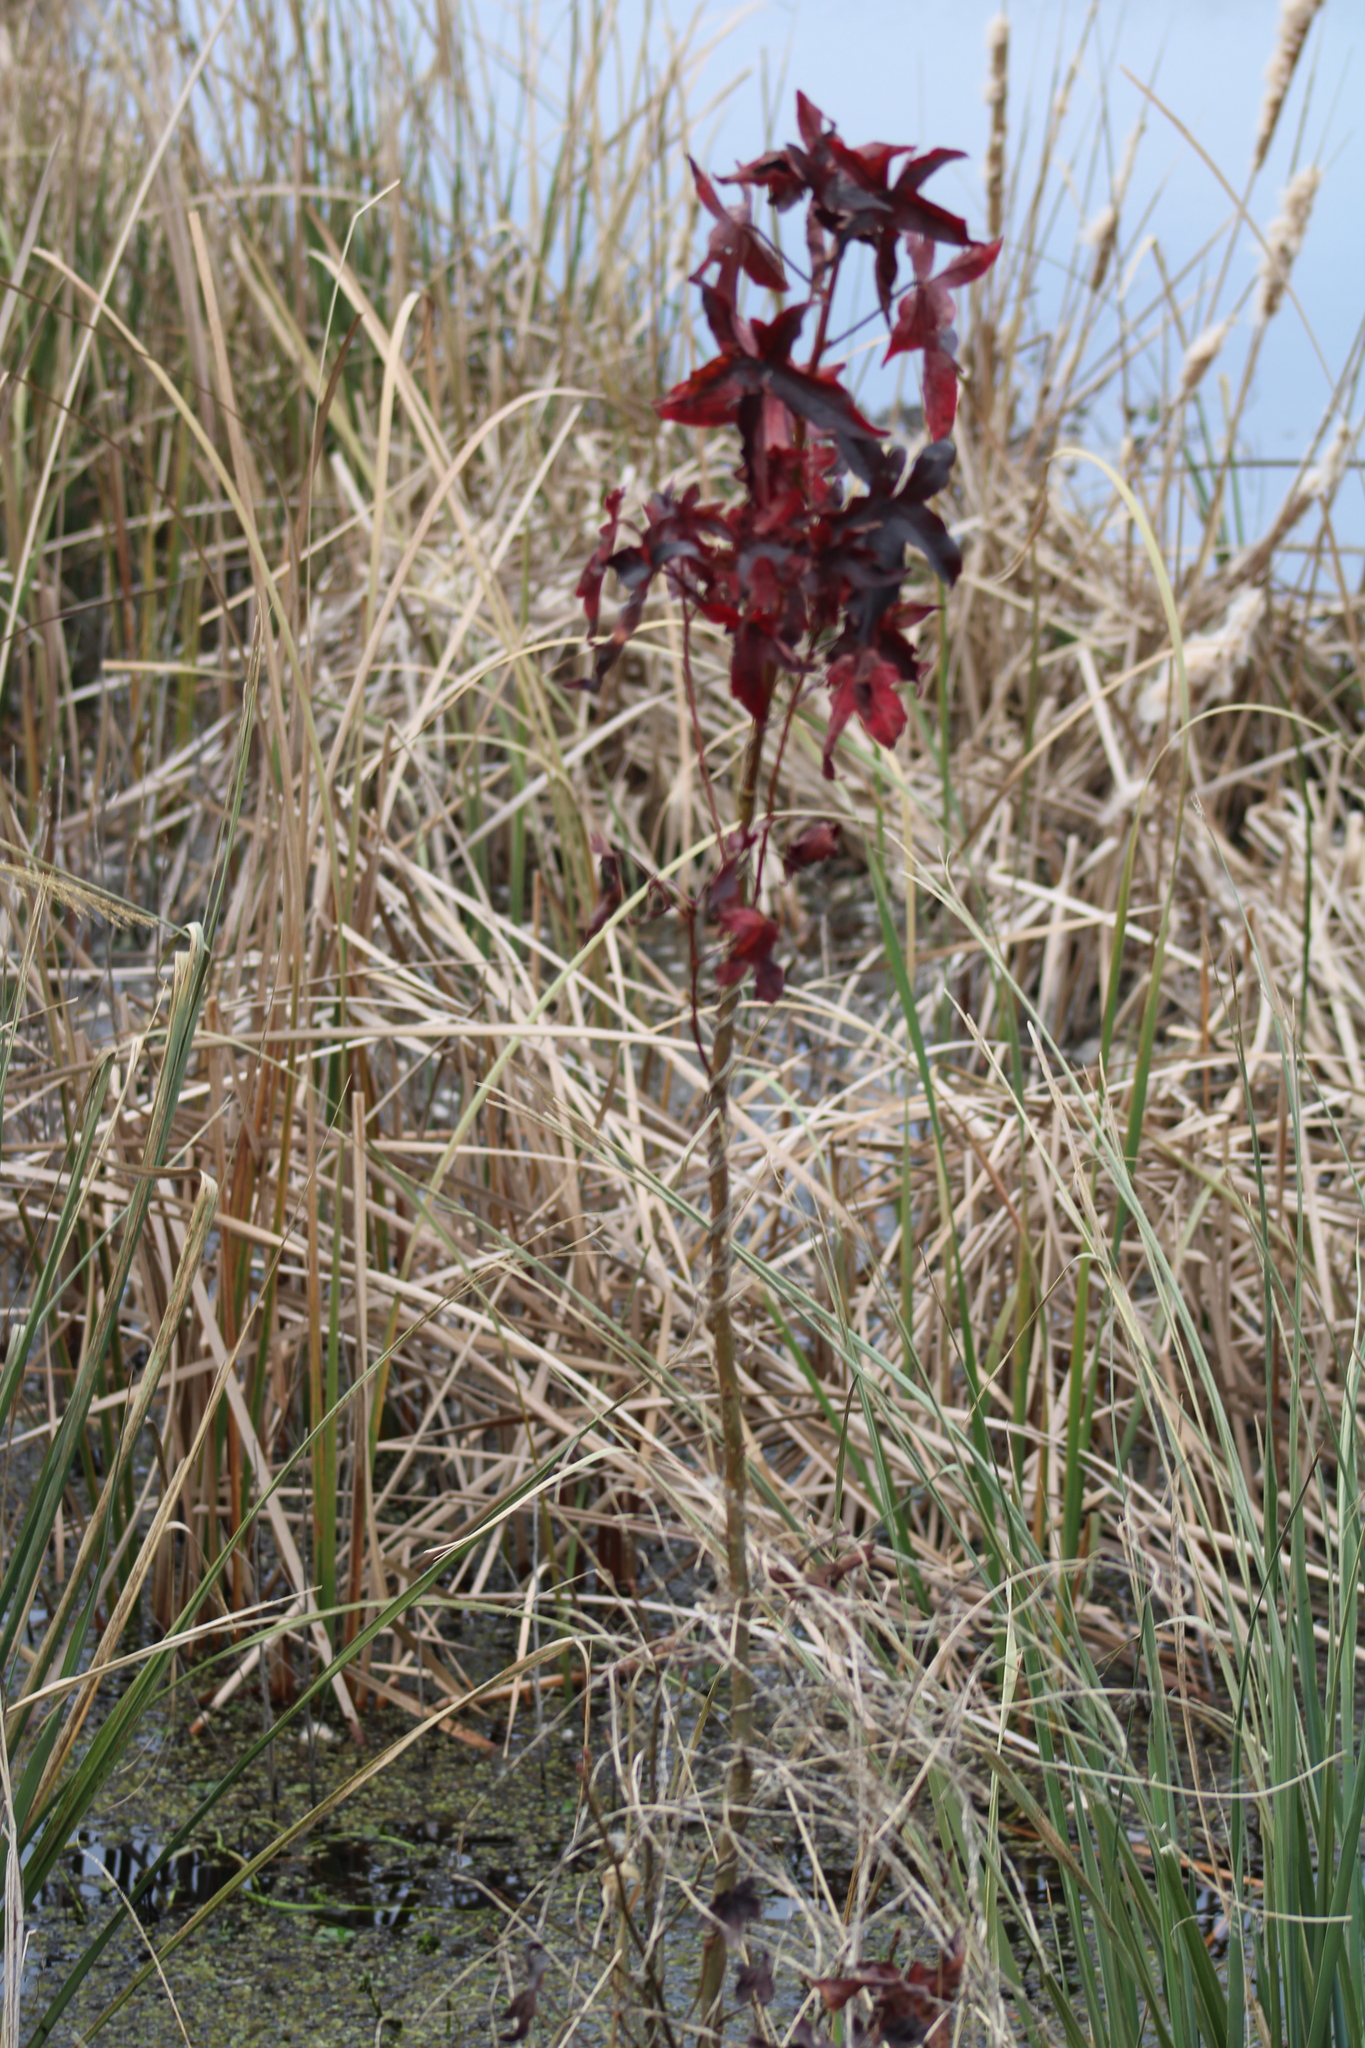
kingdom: Plantae
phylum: Tracheophyta
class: Magnoliopsida
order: Saxifragales
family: Altingiaceae
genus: Liquidambar
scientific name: Liquidambar styraciflua
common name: Sweet gum
